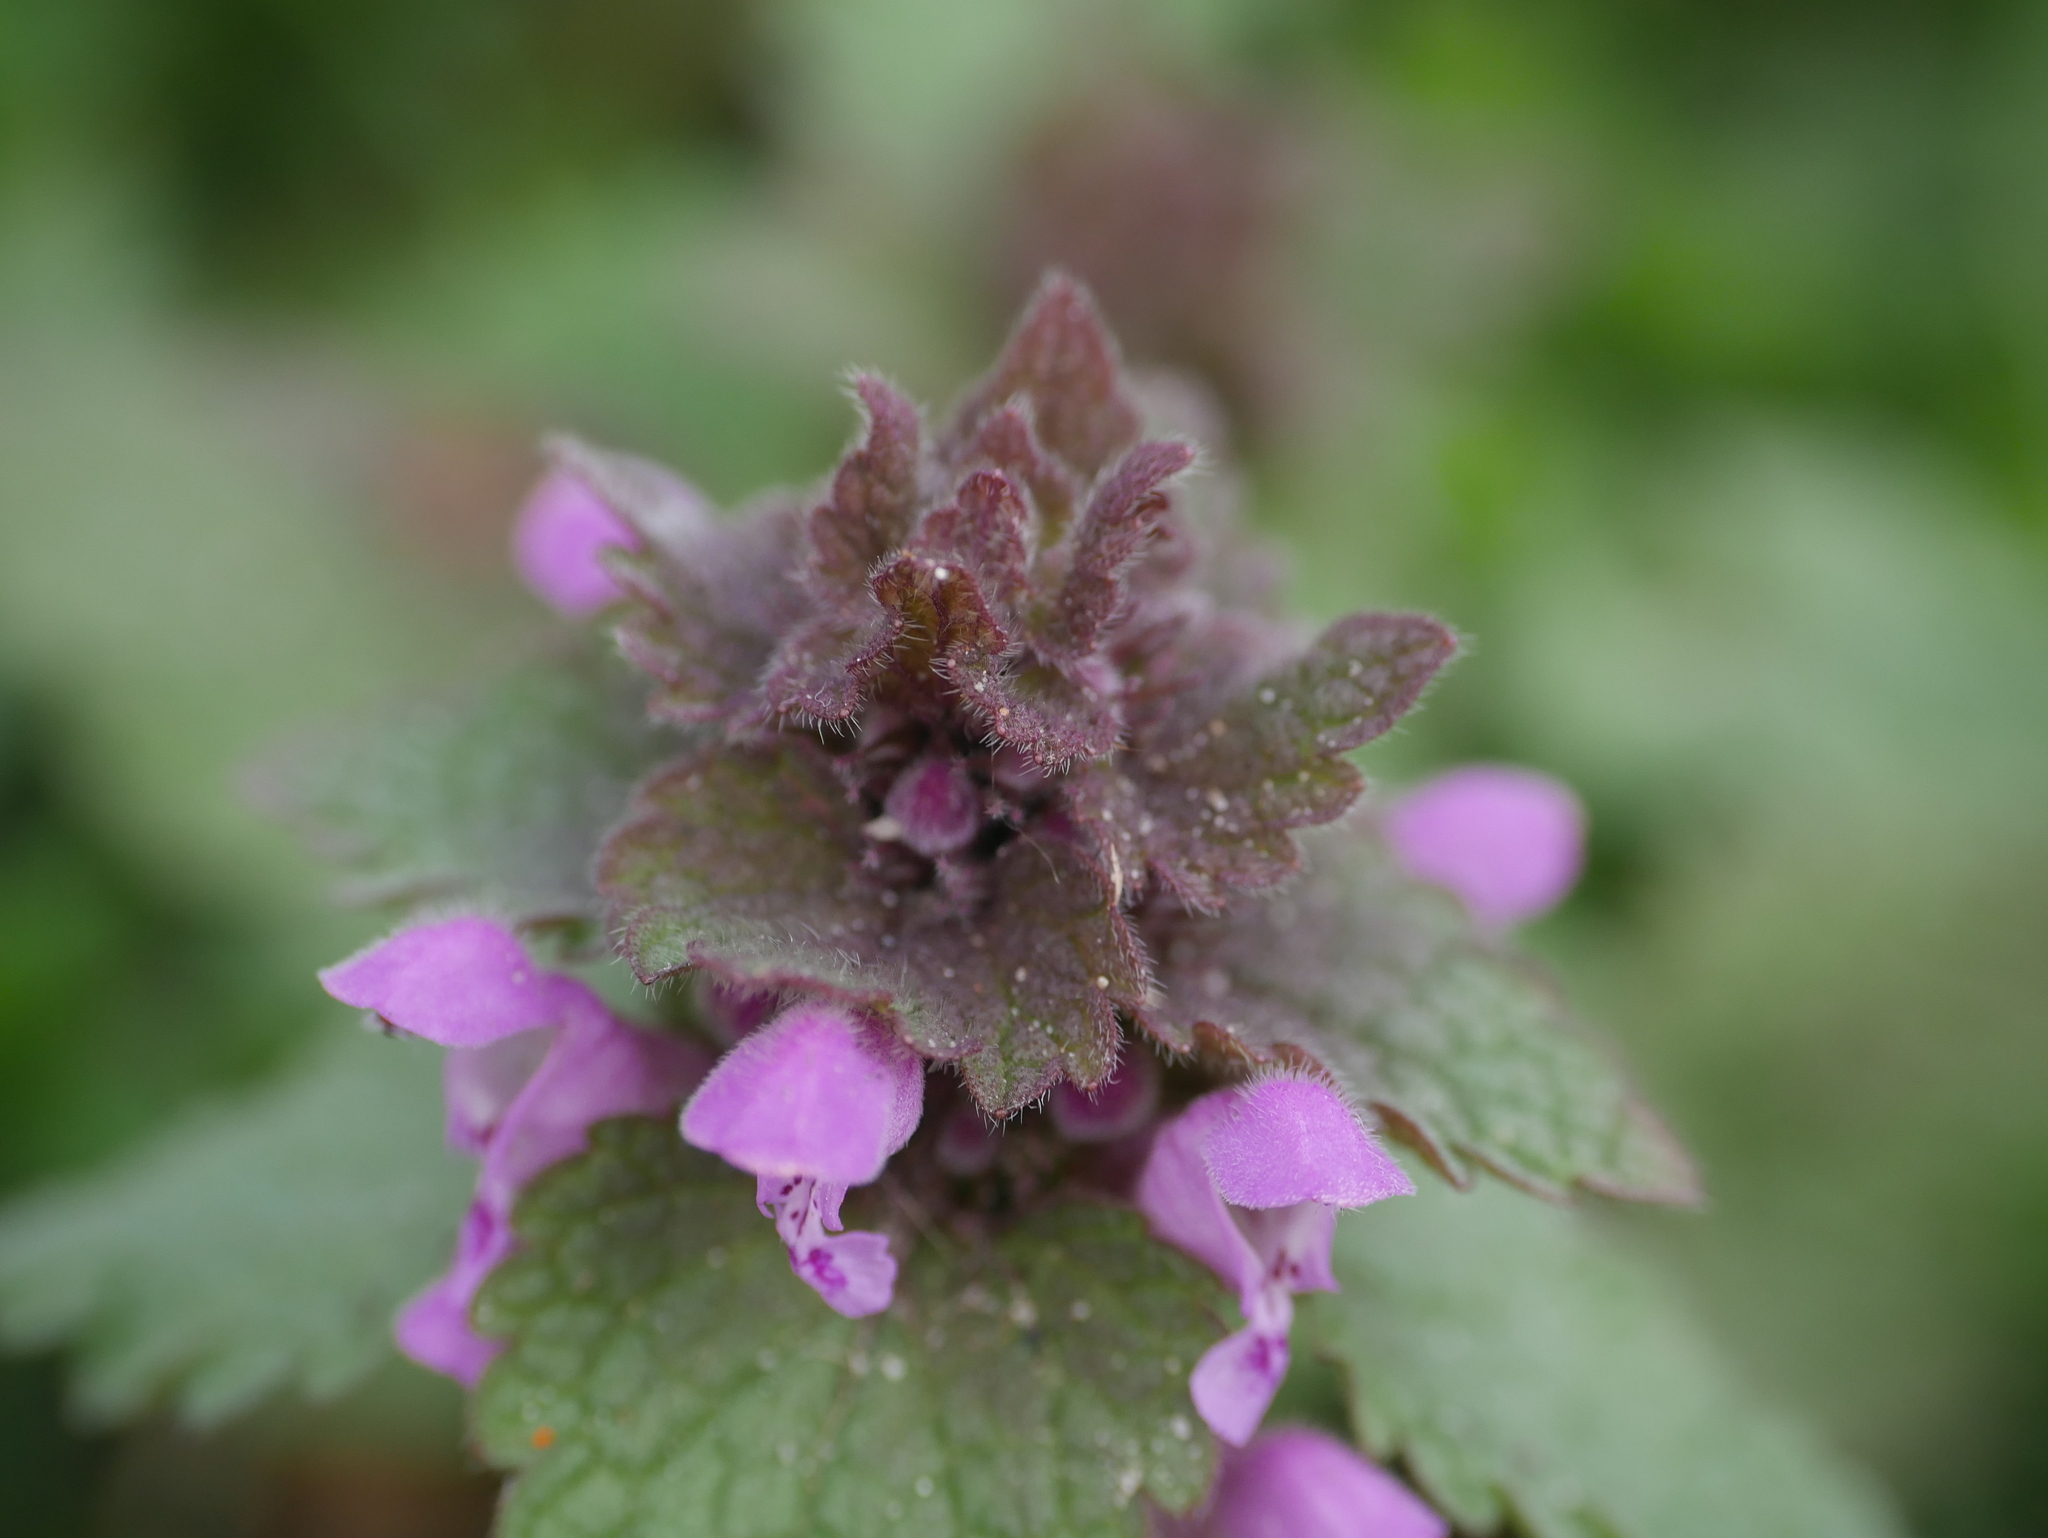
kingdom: Plantae
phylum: Tracheophyta
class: Magnoliopsida
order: Lamiales
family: Lamiaceae
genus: Lamium
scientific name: Lamium purpureum
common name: Red dead-nettle
